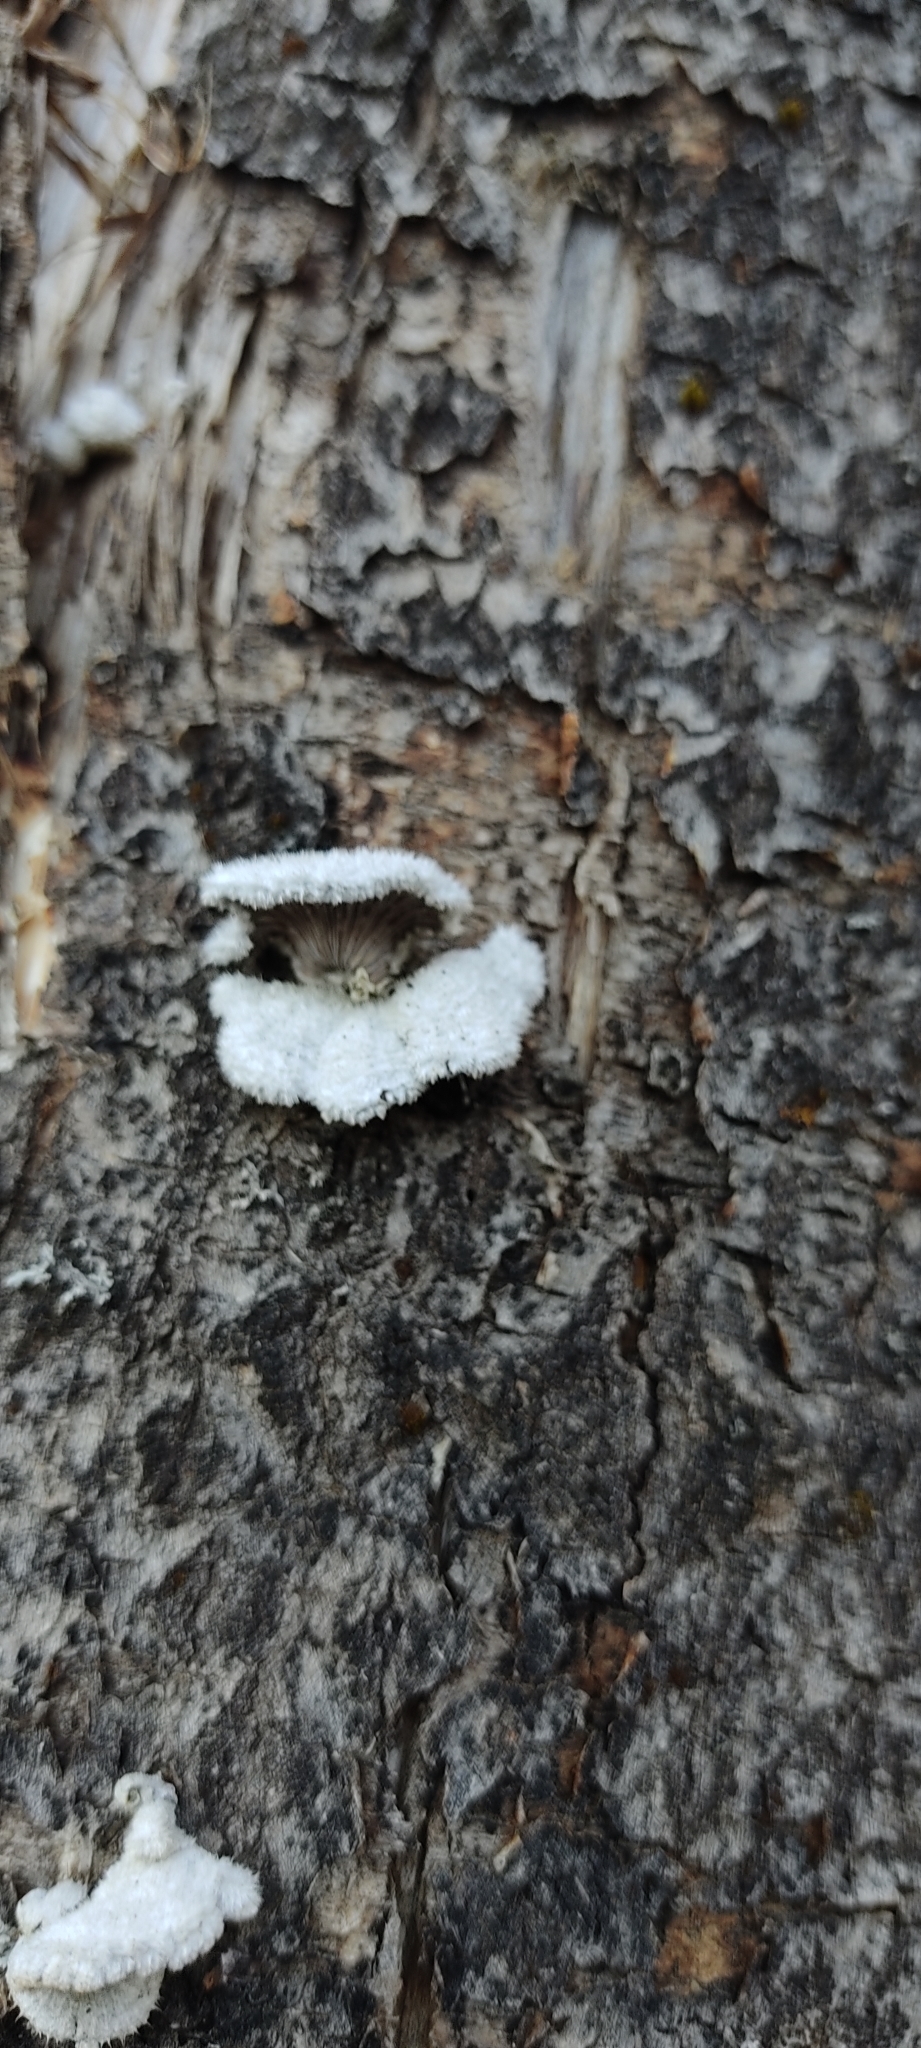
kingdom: Fungi
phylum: Basidiomycota
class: Agaricomycetes
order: Agaricales
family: Schizophyllaceae
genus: Schizophyllum
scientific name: Schizophyllum commune
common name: Common porecrust
